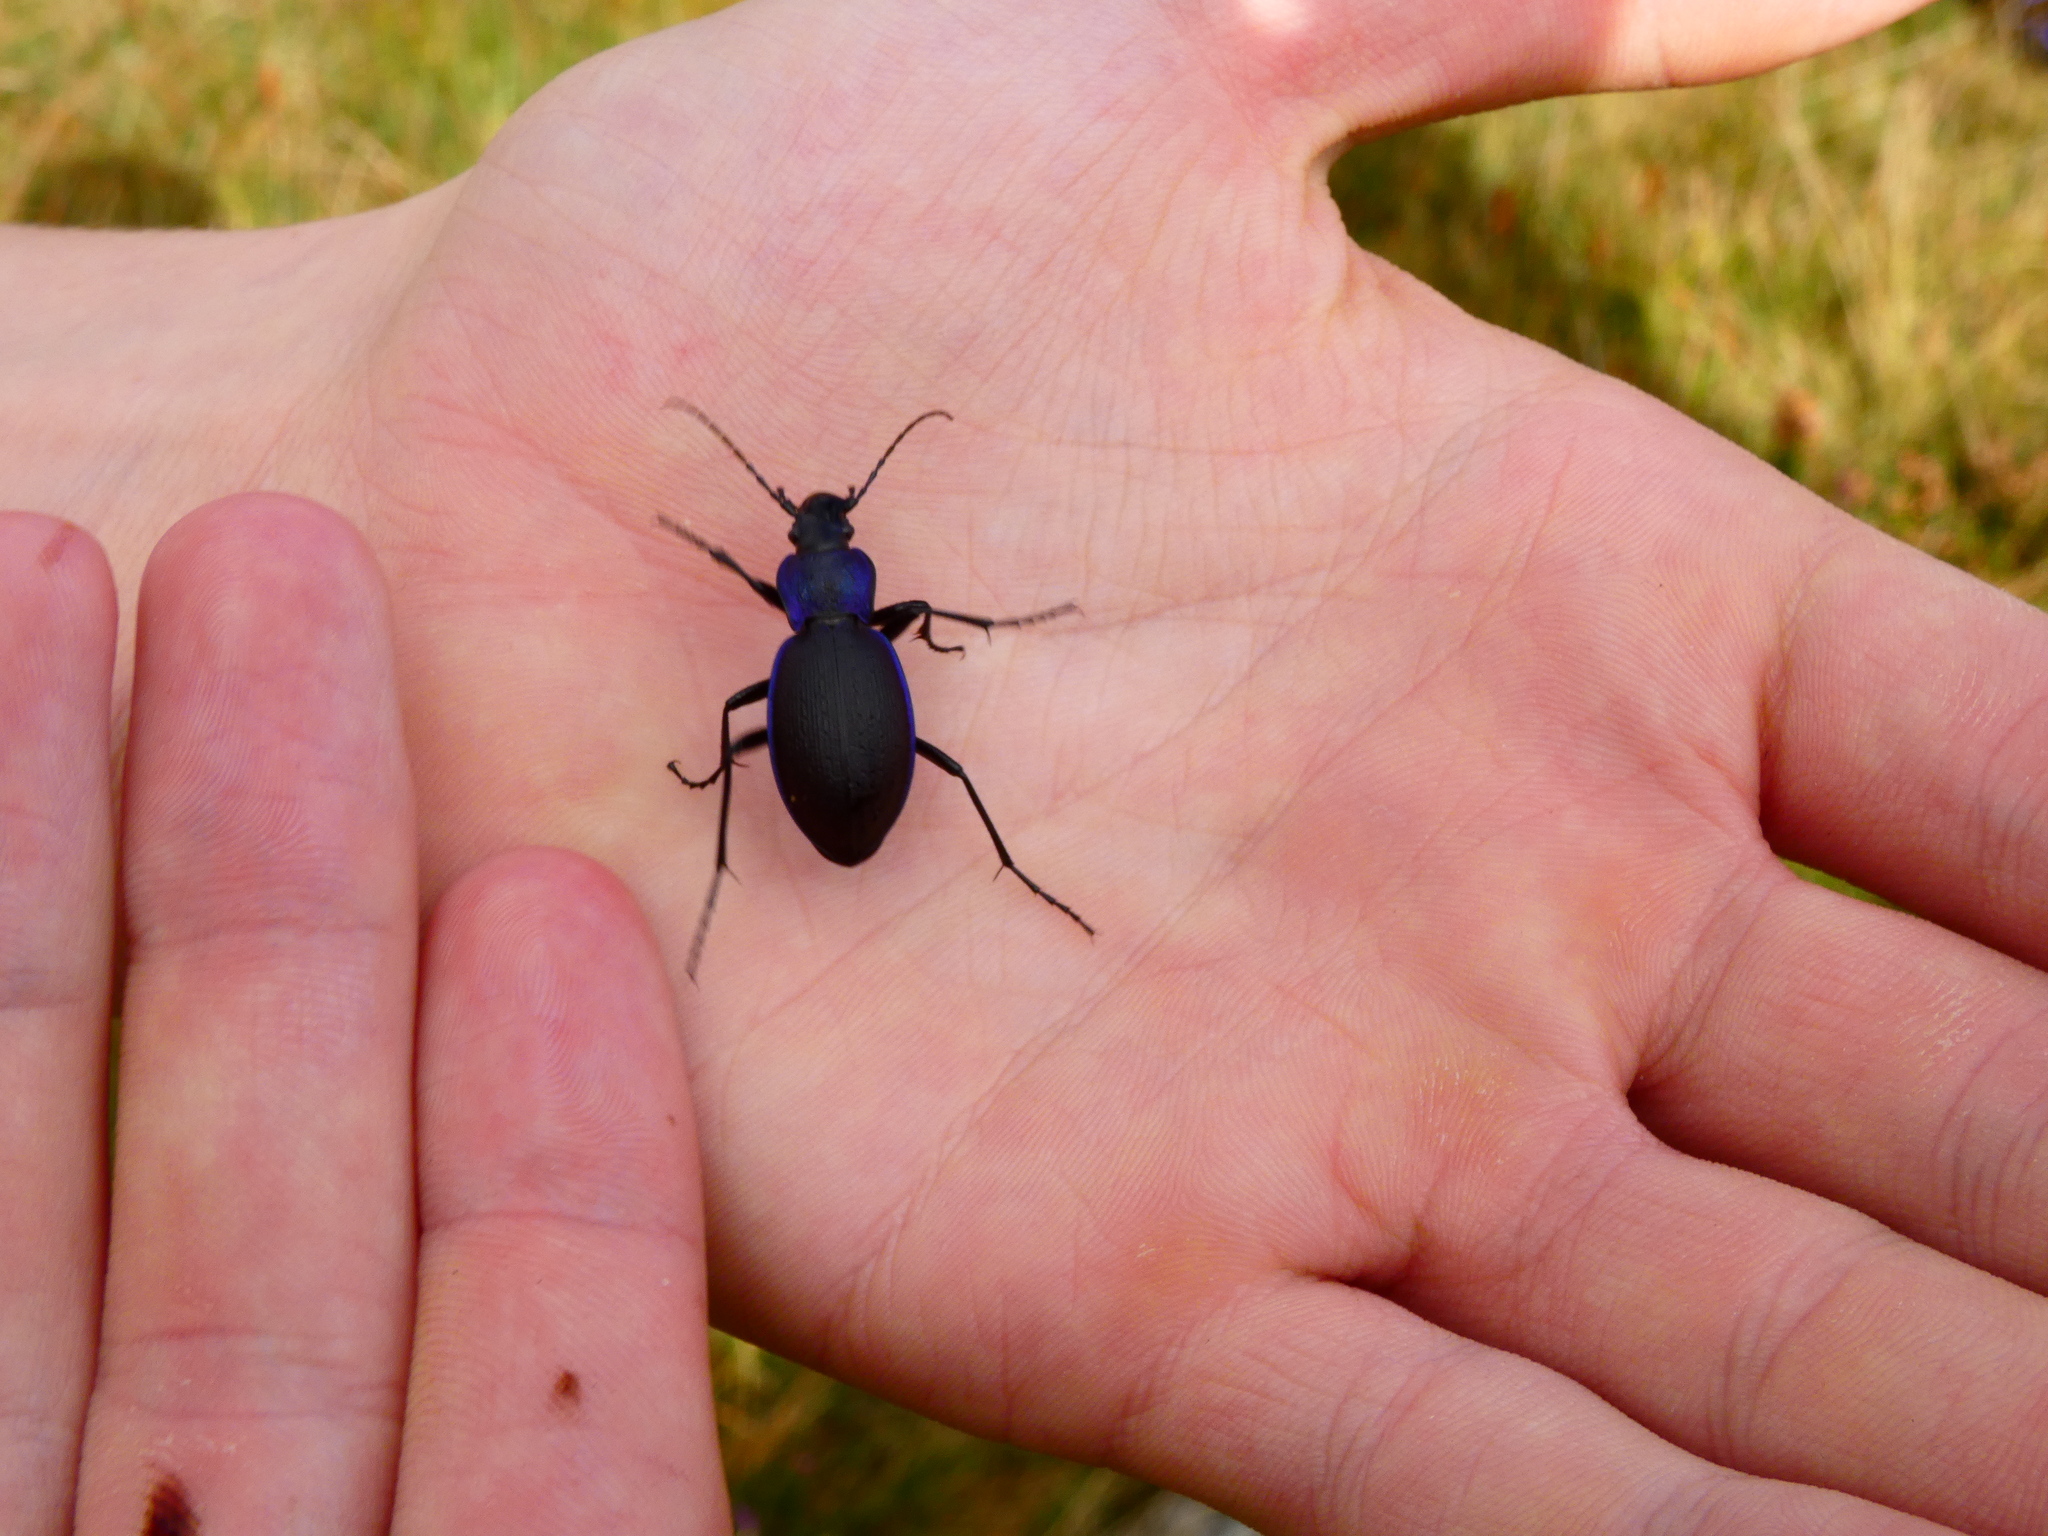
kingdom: Animalia
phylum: Arthropoda
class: Insecta
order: Coleoptera
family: Carabidae
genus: Carabus
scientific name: Carabus problematicus
